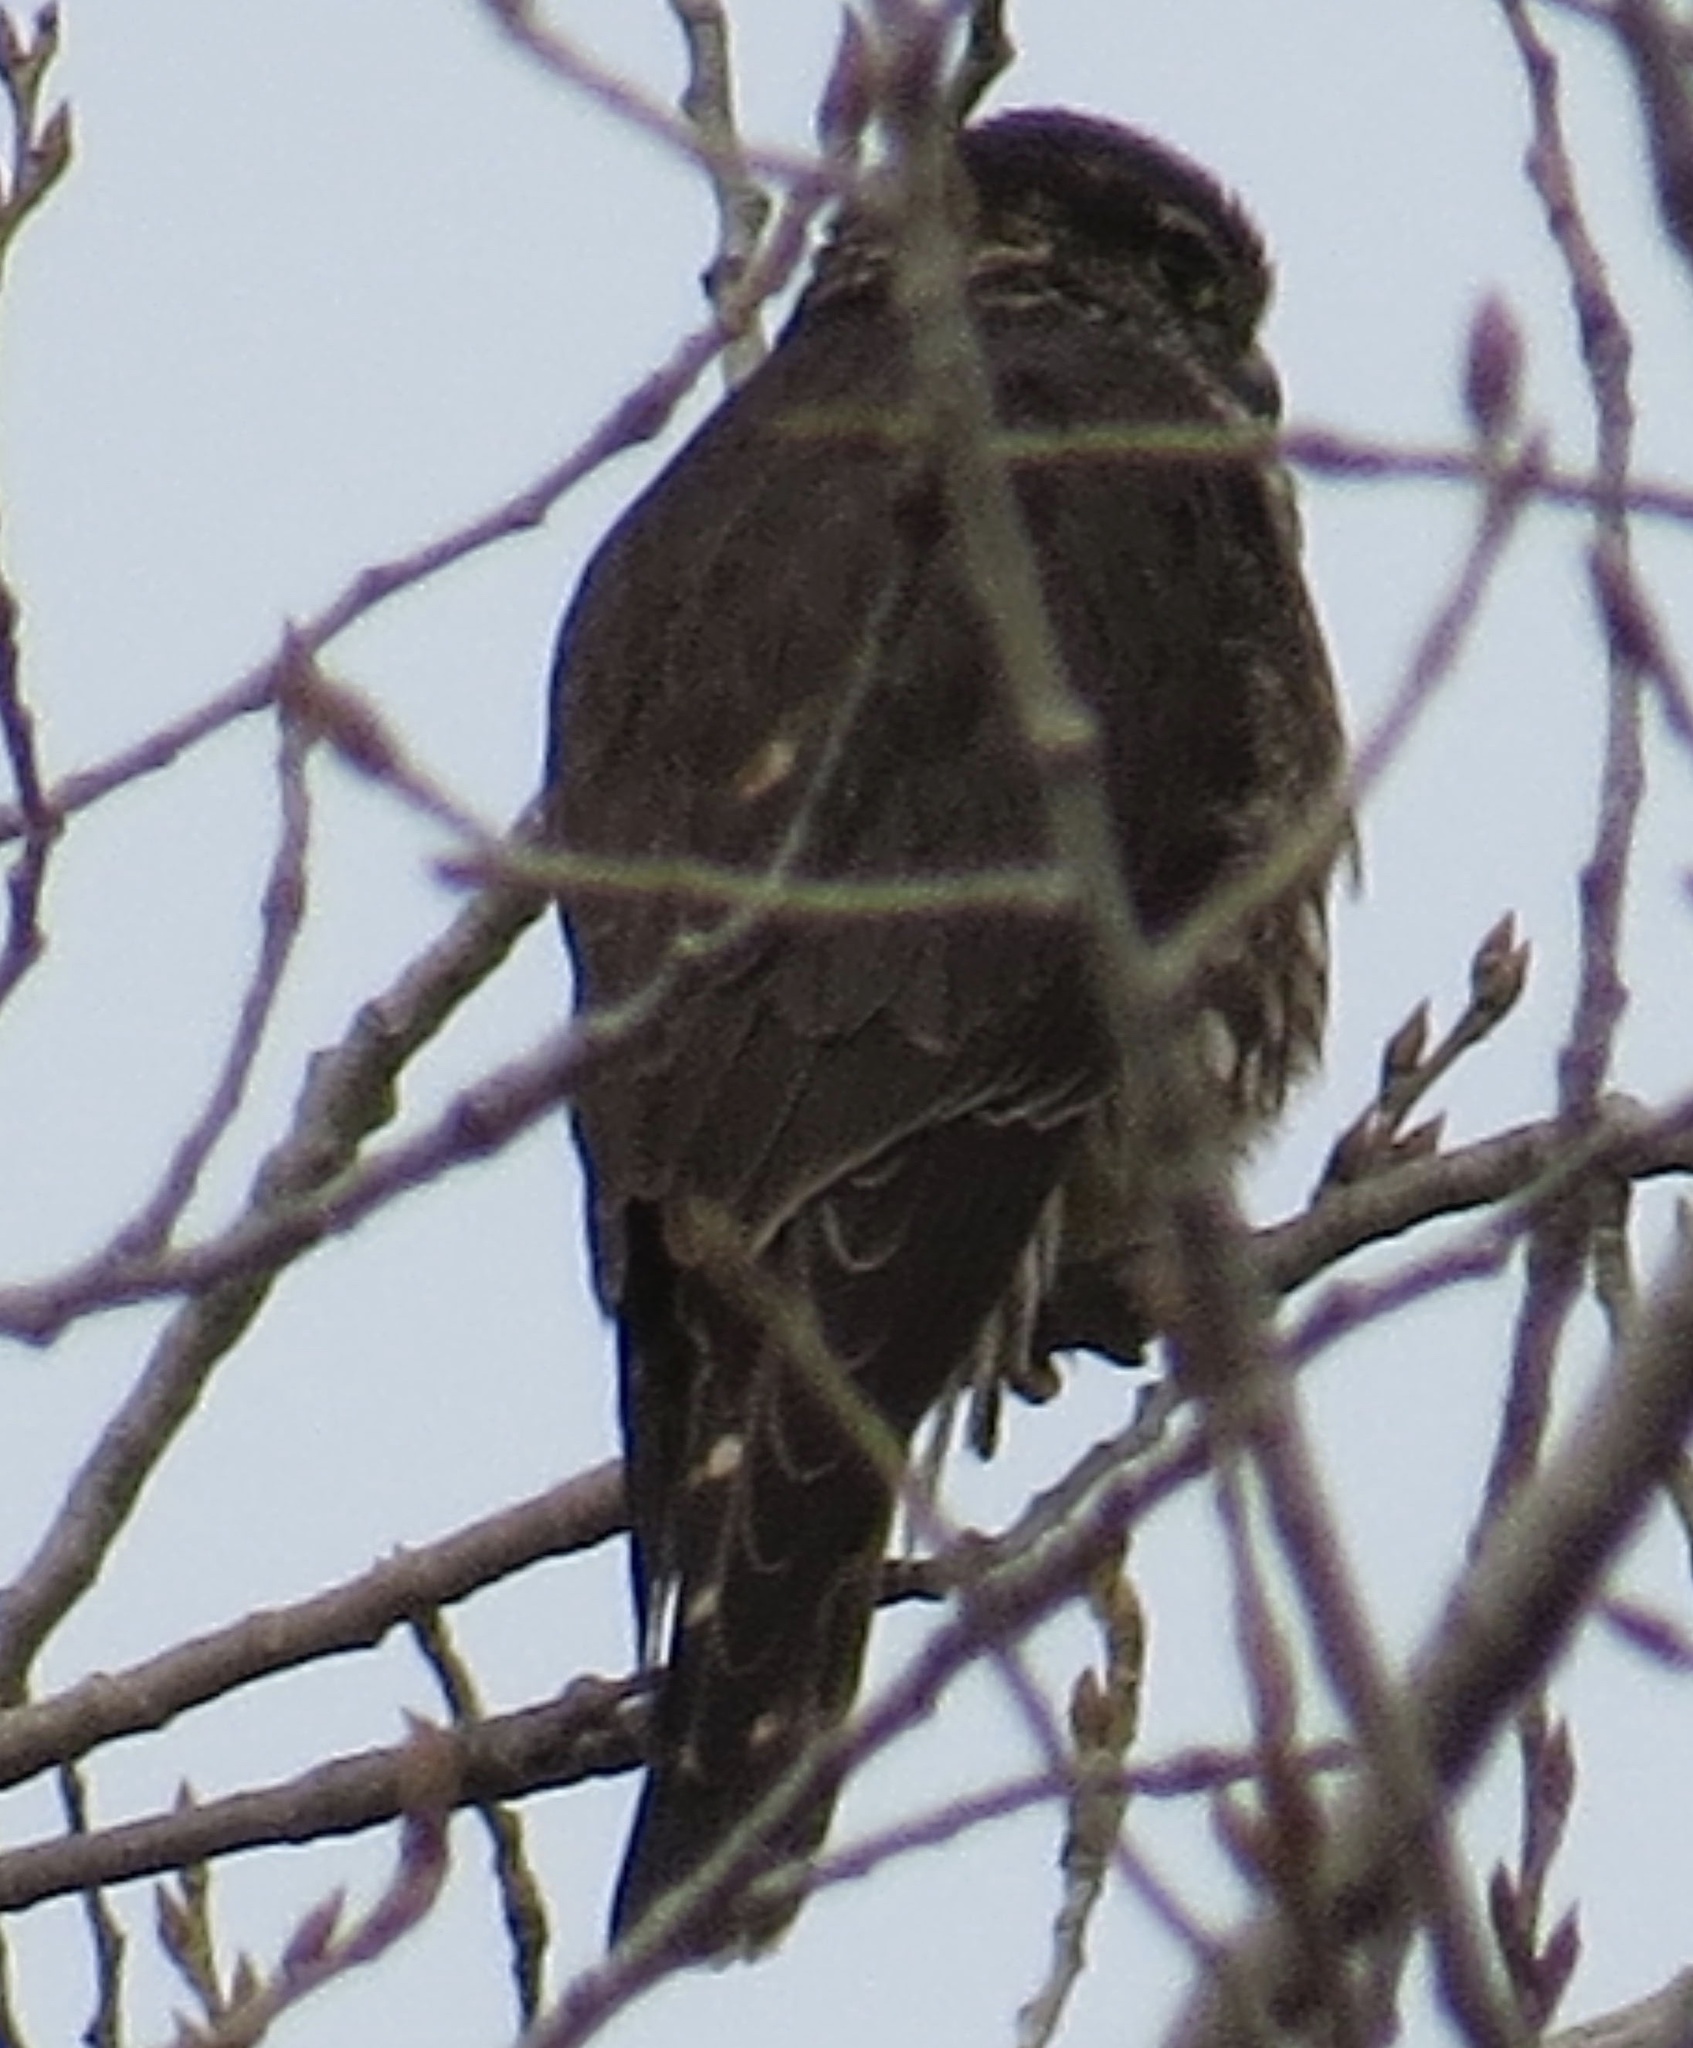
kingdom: Animalia
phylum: Chordata
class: Aves
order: Falconiformes
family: Falconidae
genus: Falco
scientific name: Falco columbarius
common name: Merlin
